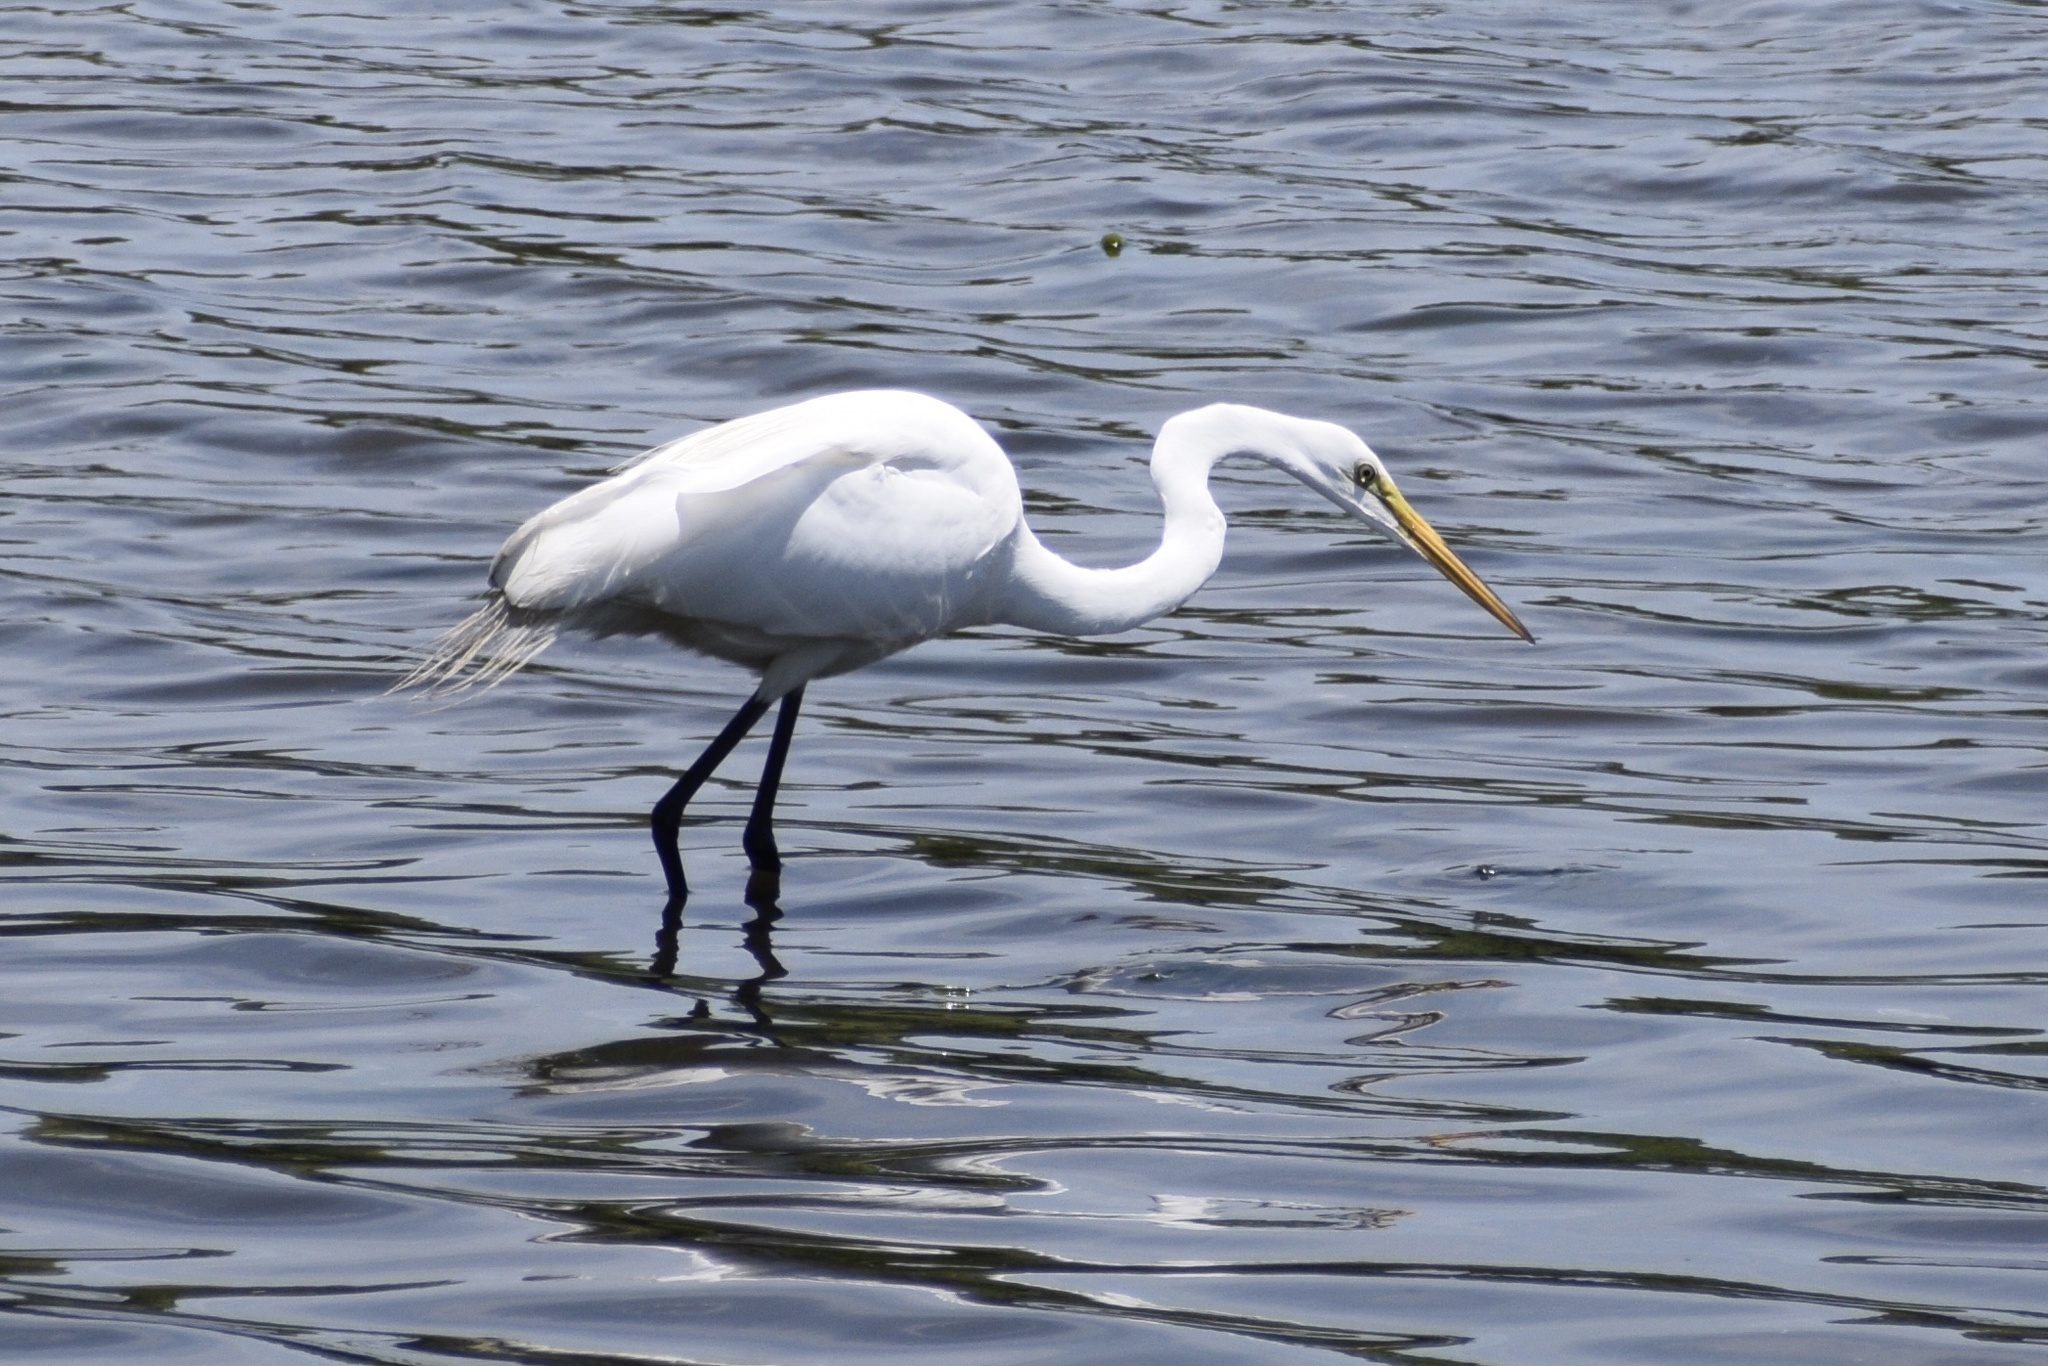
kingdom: Animalia
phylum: Chordata
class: Aves
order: Pelecaniformes
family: Ardeidae
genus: Ardea
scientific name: Ardea alba
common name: Great egret
